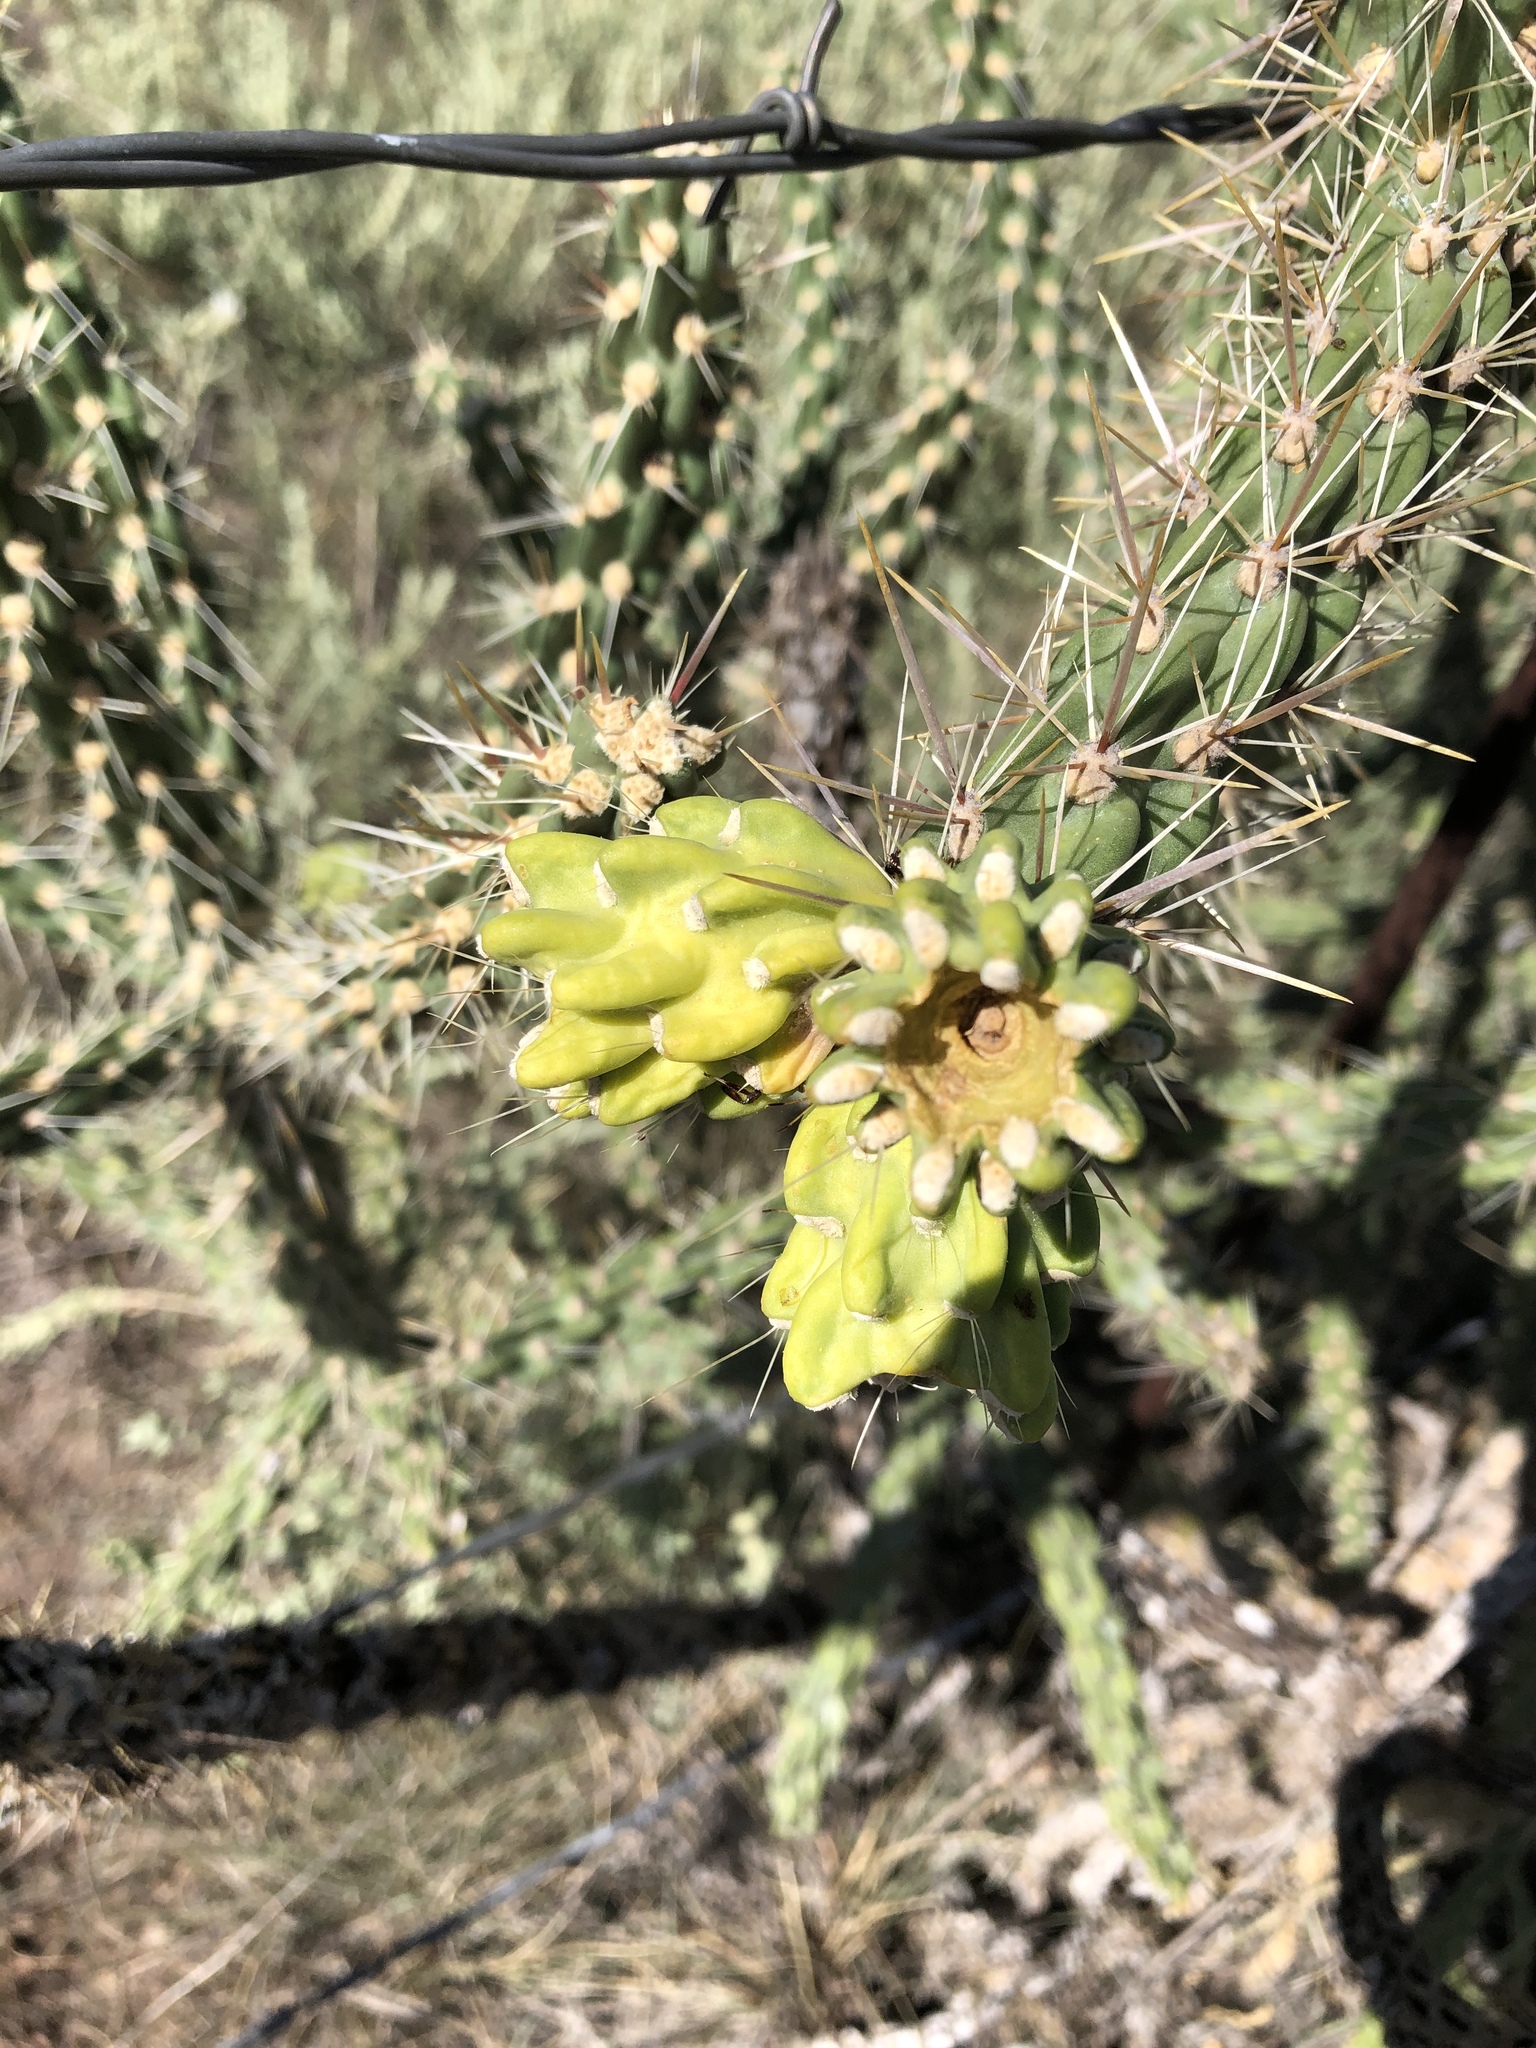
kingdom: Plantae
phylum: Tracheophyta
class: Magnoliopsida
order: Caryophyllales
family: Cactaceae
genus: Cylindropuntia
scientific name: Cylindropuntia imbricata
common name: Candelabrum cactus
